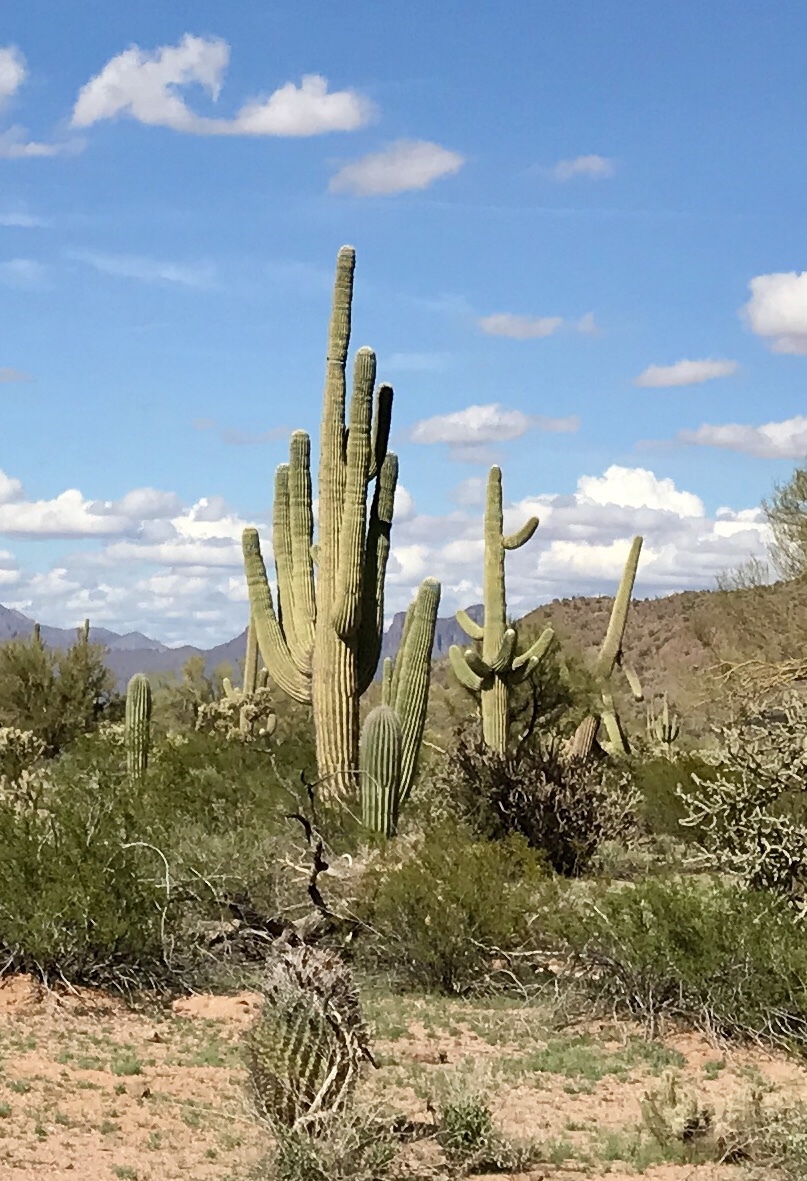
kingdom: Plantae
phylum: Tracheophyta
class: Magnoliopsida
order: Caryophyllales
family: Cactaceae
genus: Carnegiea
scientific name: Carnegiea gigantea
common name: Saguaro
